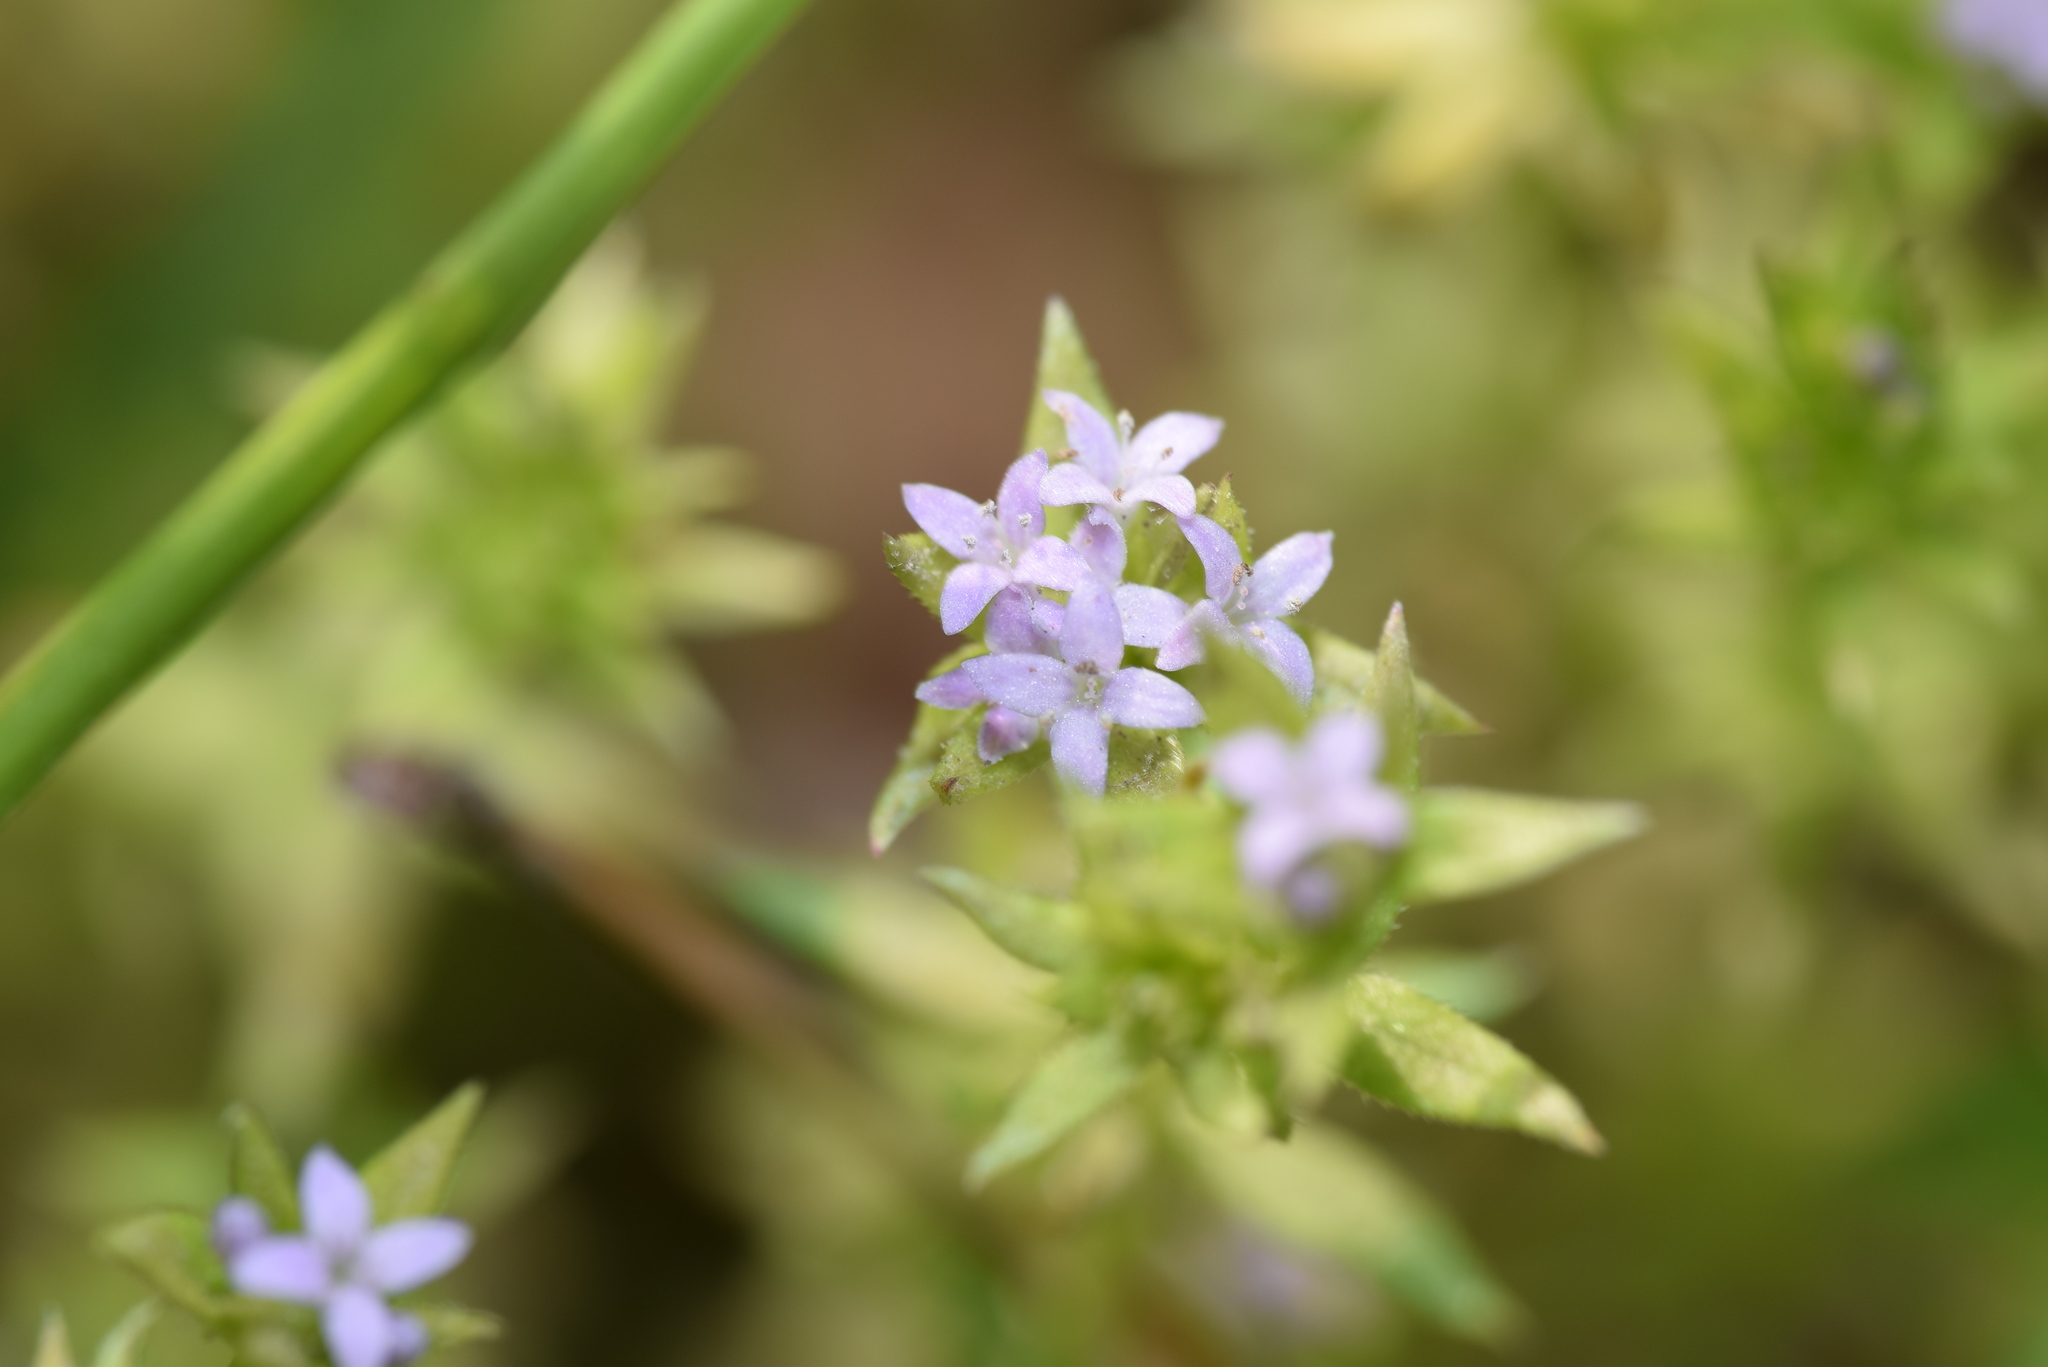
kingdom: Plantae
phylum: Tracheophyta
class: Magnoliopsida
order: Gentianales
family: Rubiaceae
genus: Sherardia
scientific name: Sherardia arvensis
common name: Field madder
